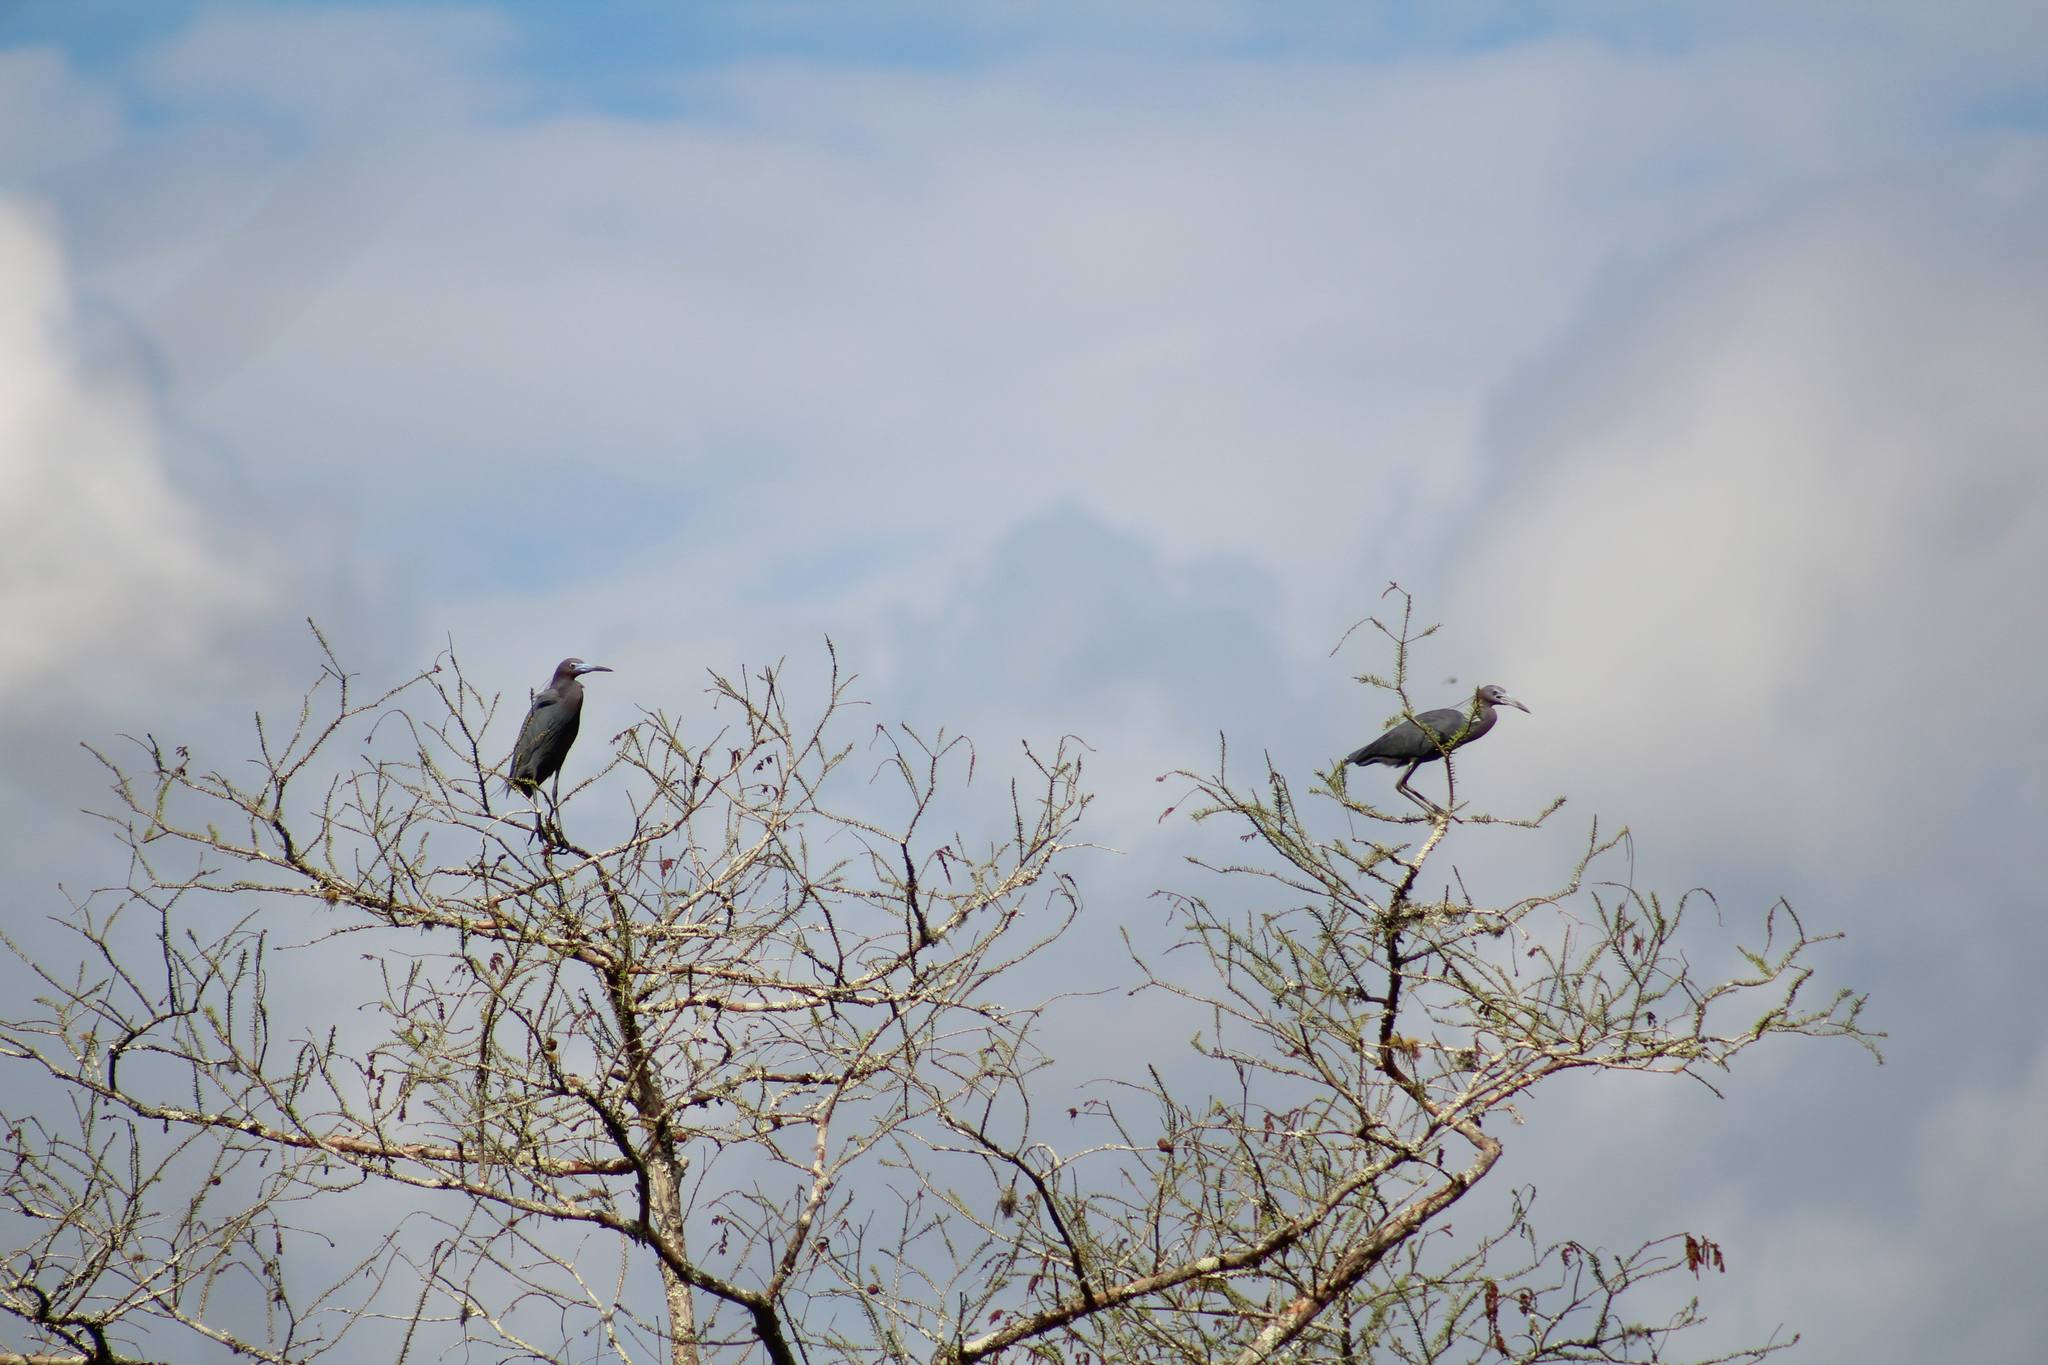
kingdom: Animalia
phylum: Chordata
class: Aves
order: Pelecaniformes
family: Ardeidae
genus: Egretta
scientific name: Egretta caerulea
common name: Little blue heron
